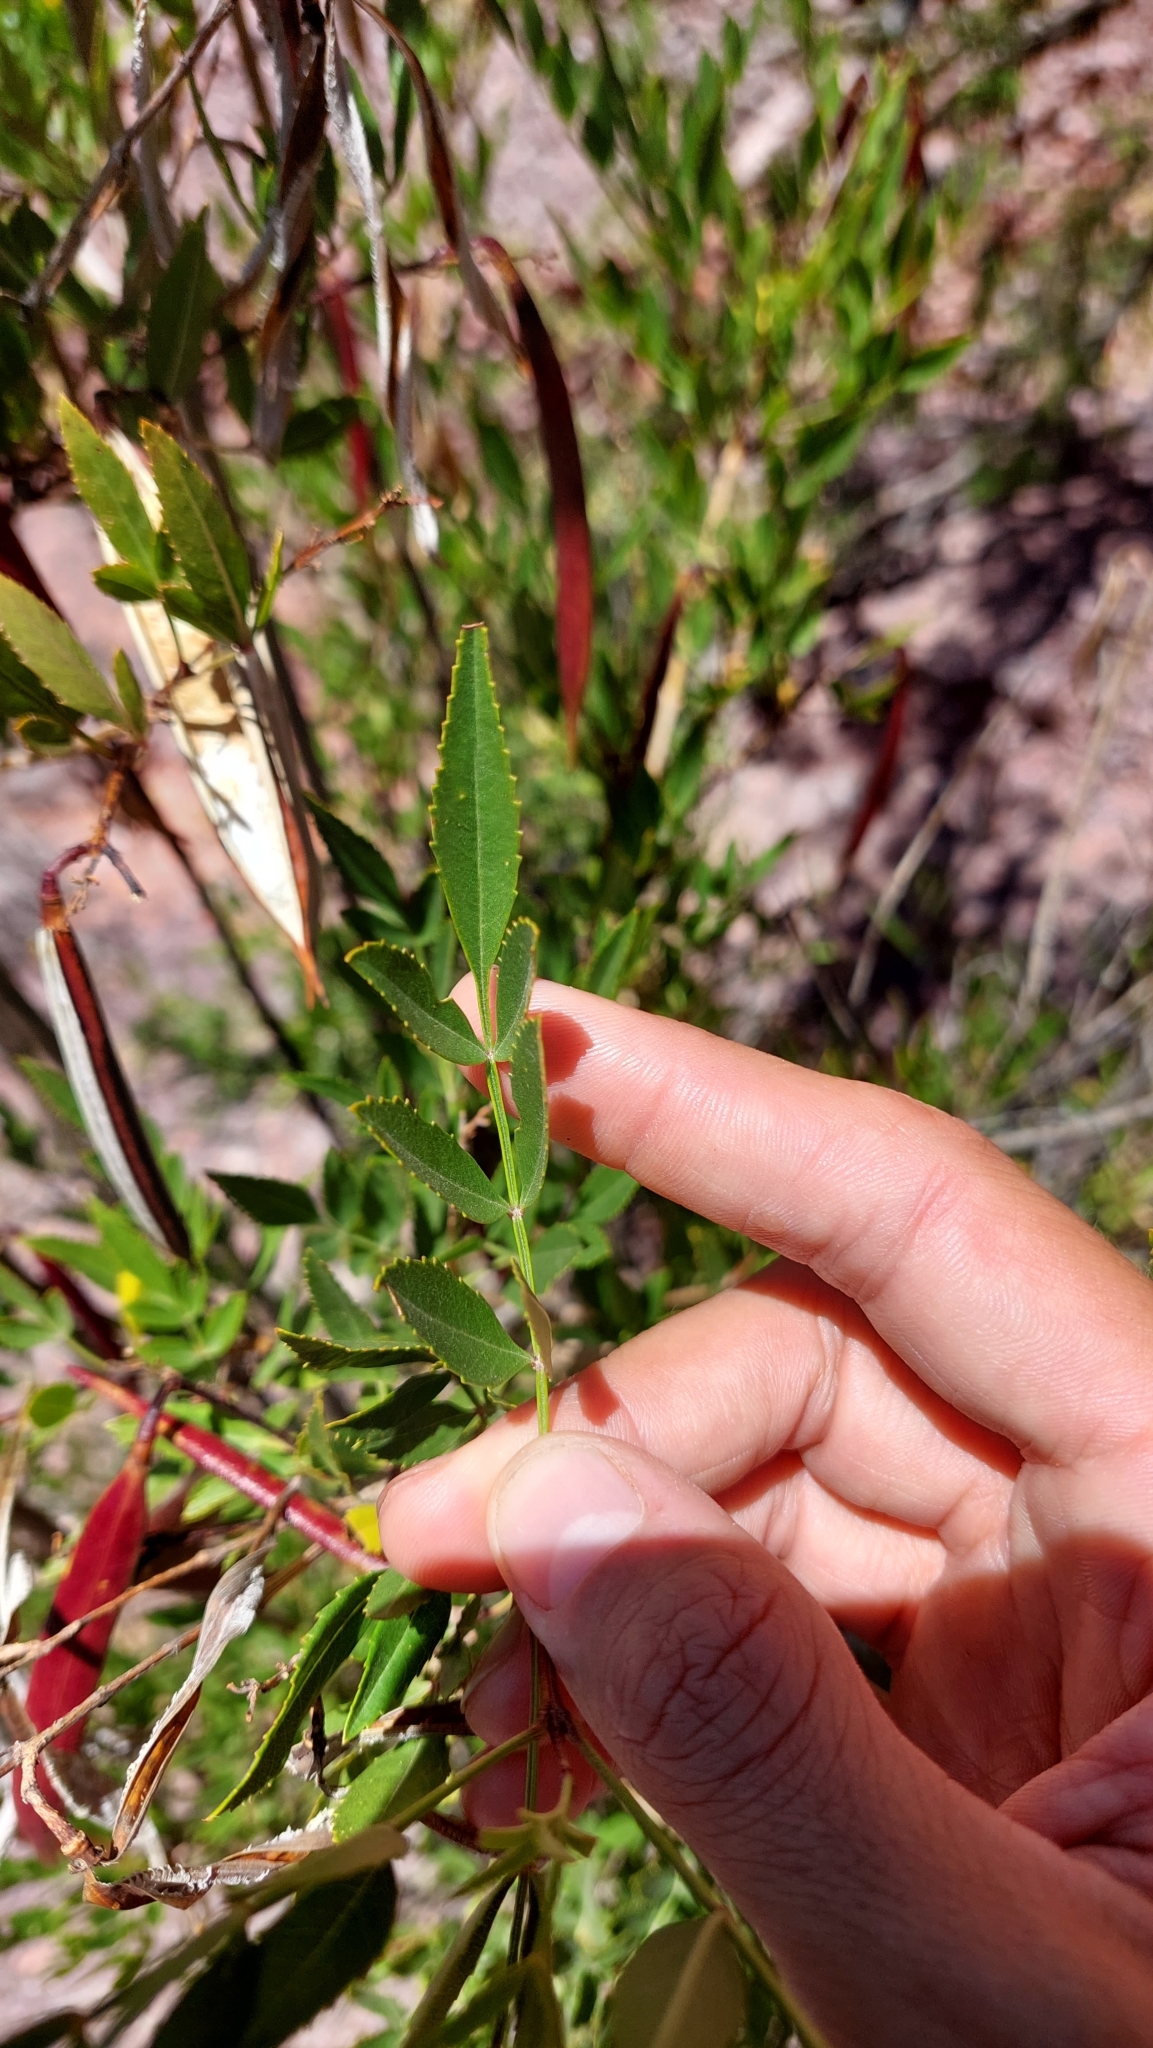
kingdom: Plantae
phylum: Tracheophyta
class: Magnoliopsida
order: Lamiales
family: Bignoniaceae
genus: Tecoma
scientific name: Tecoma fulva
